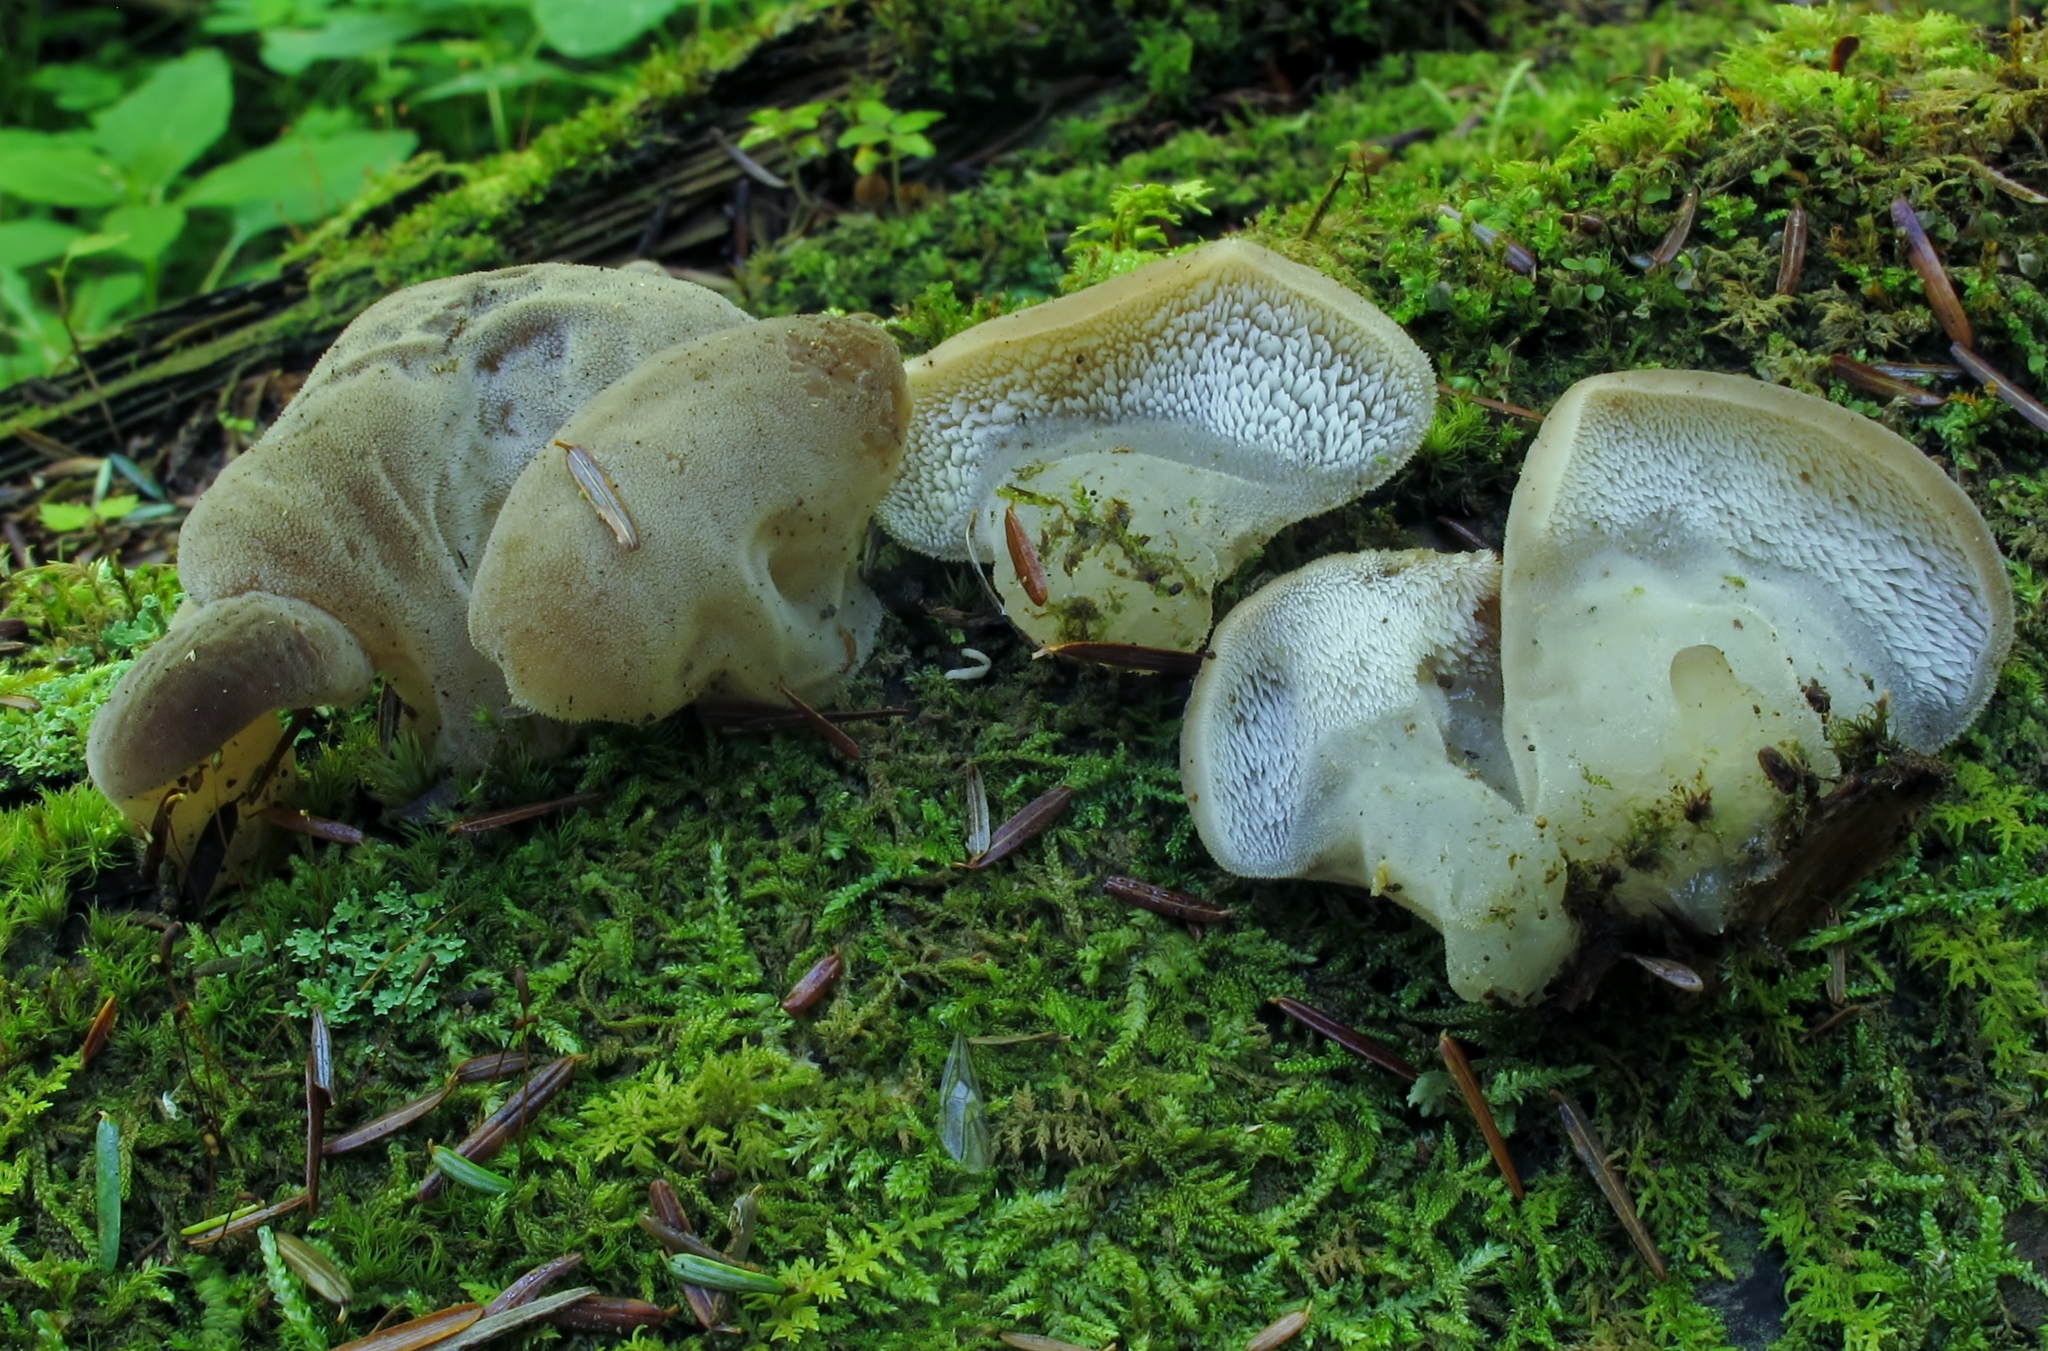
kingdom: Fungi
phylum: Basidiomycota
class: Agaricomycetes
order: Auriculariales
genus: Pseudohydnum
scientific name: Pseudohydnum gelatinosum
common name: Jelly tongue
